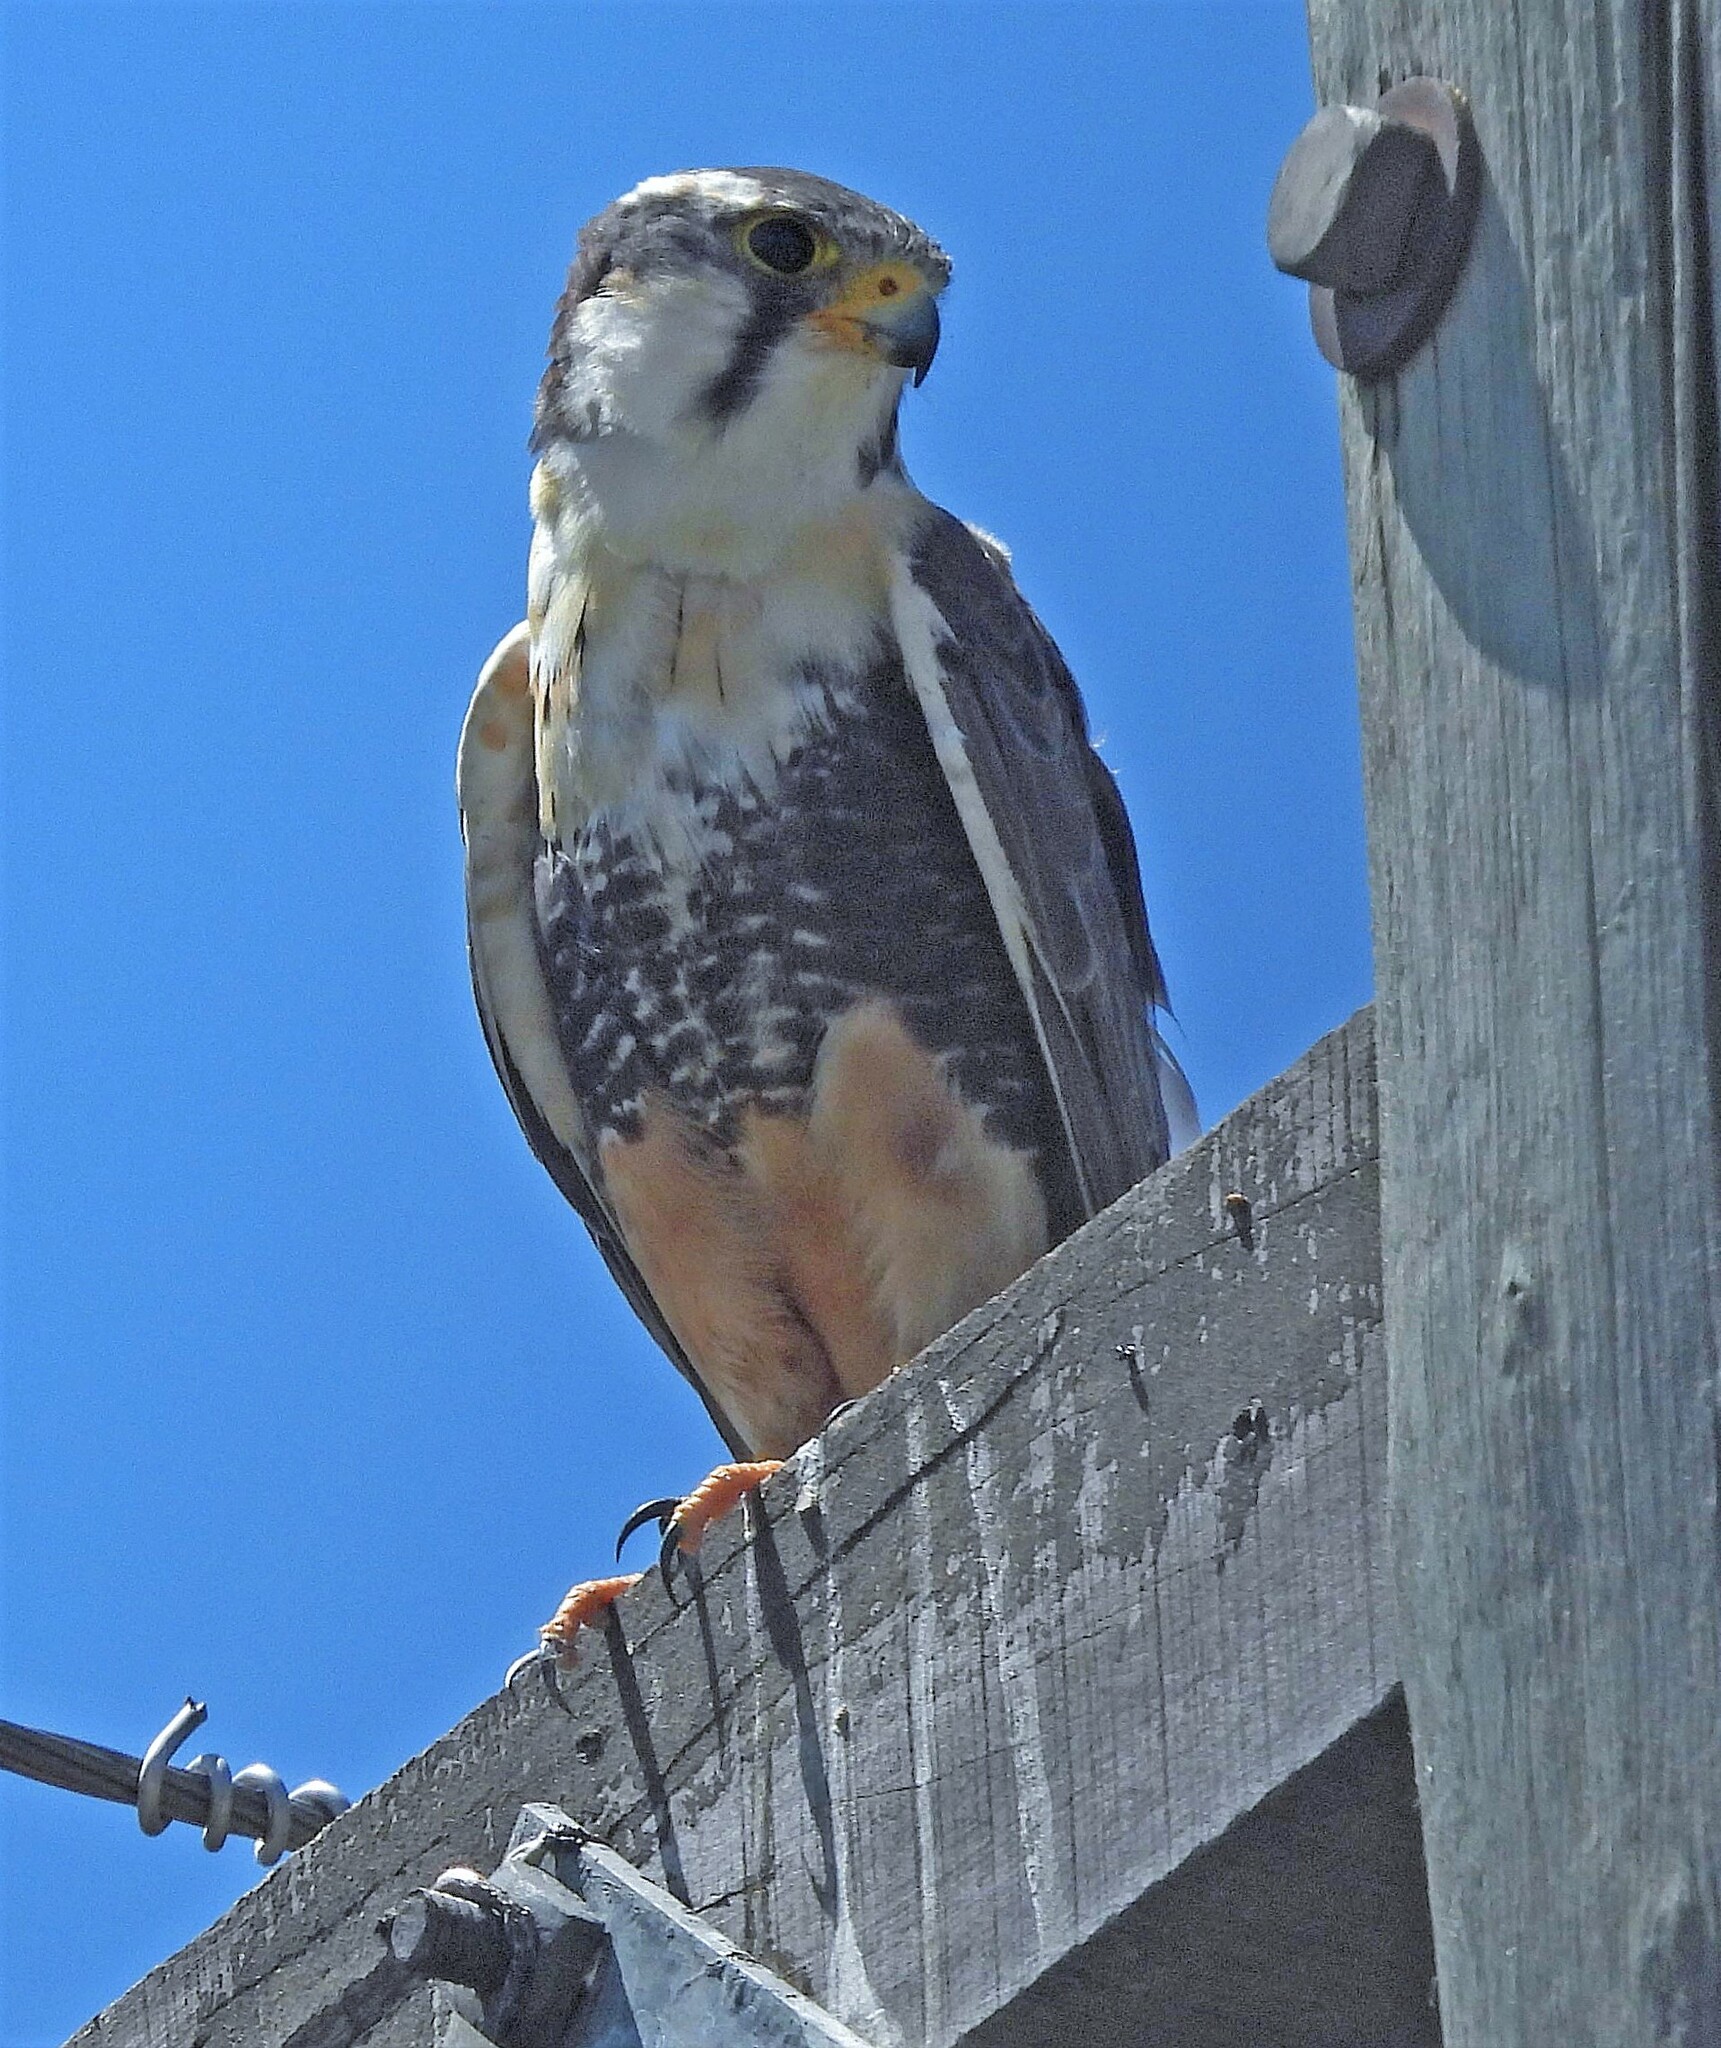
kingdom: Animalia
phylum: Chordata
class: Aves
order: Falconiformes
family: Falconidae
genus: Falco
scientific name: Falco femoralis
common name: Aplomado falcon
